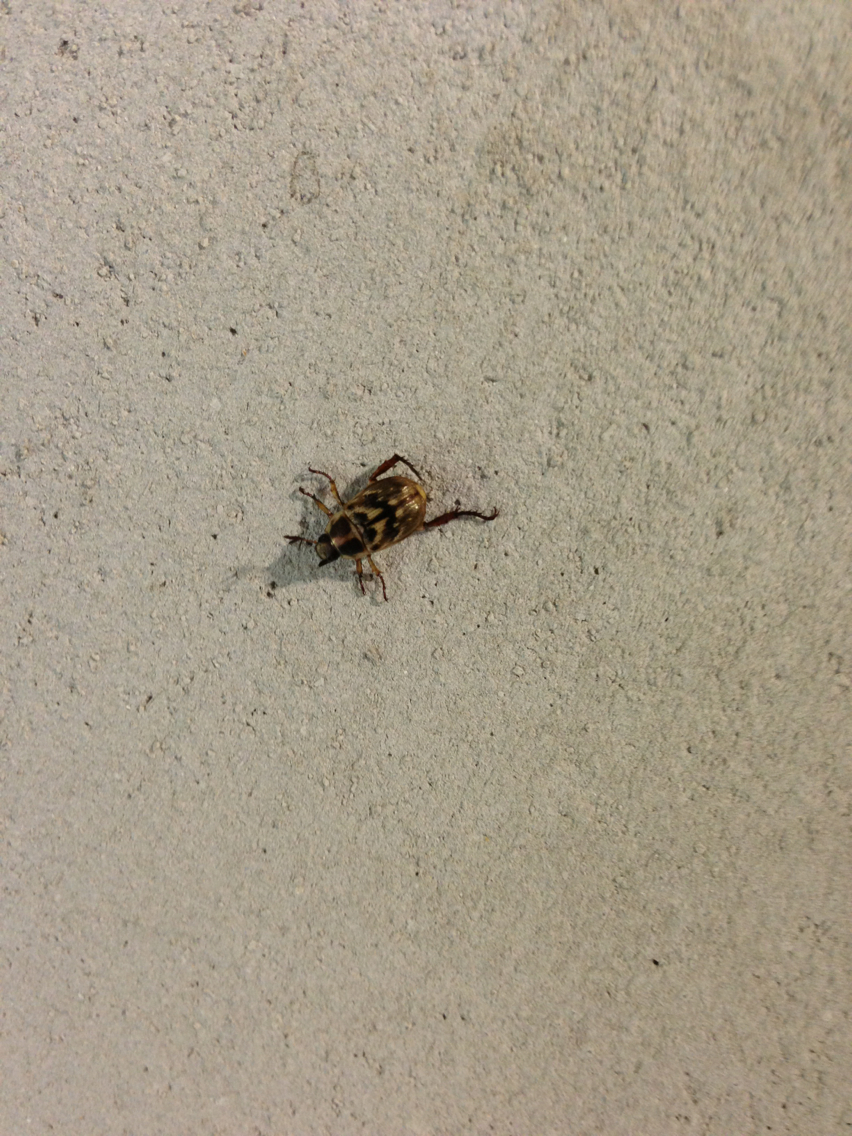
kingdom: Animalia
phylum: Arthropoda
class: Insecta
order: Coleoptera
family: Scarabaeidae
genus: Exomala
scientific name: Exomala orientalis
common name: Oriental beetle
